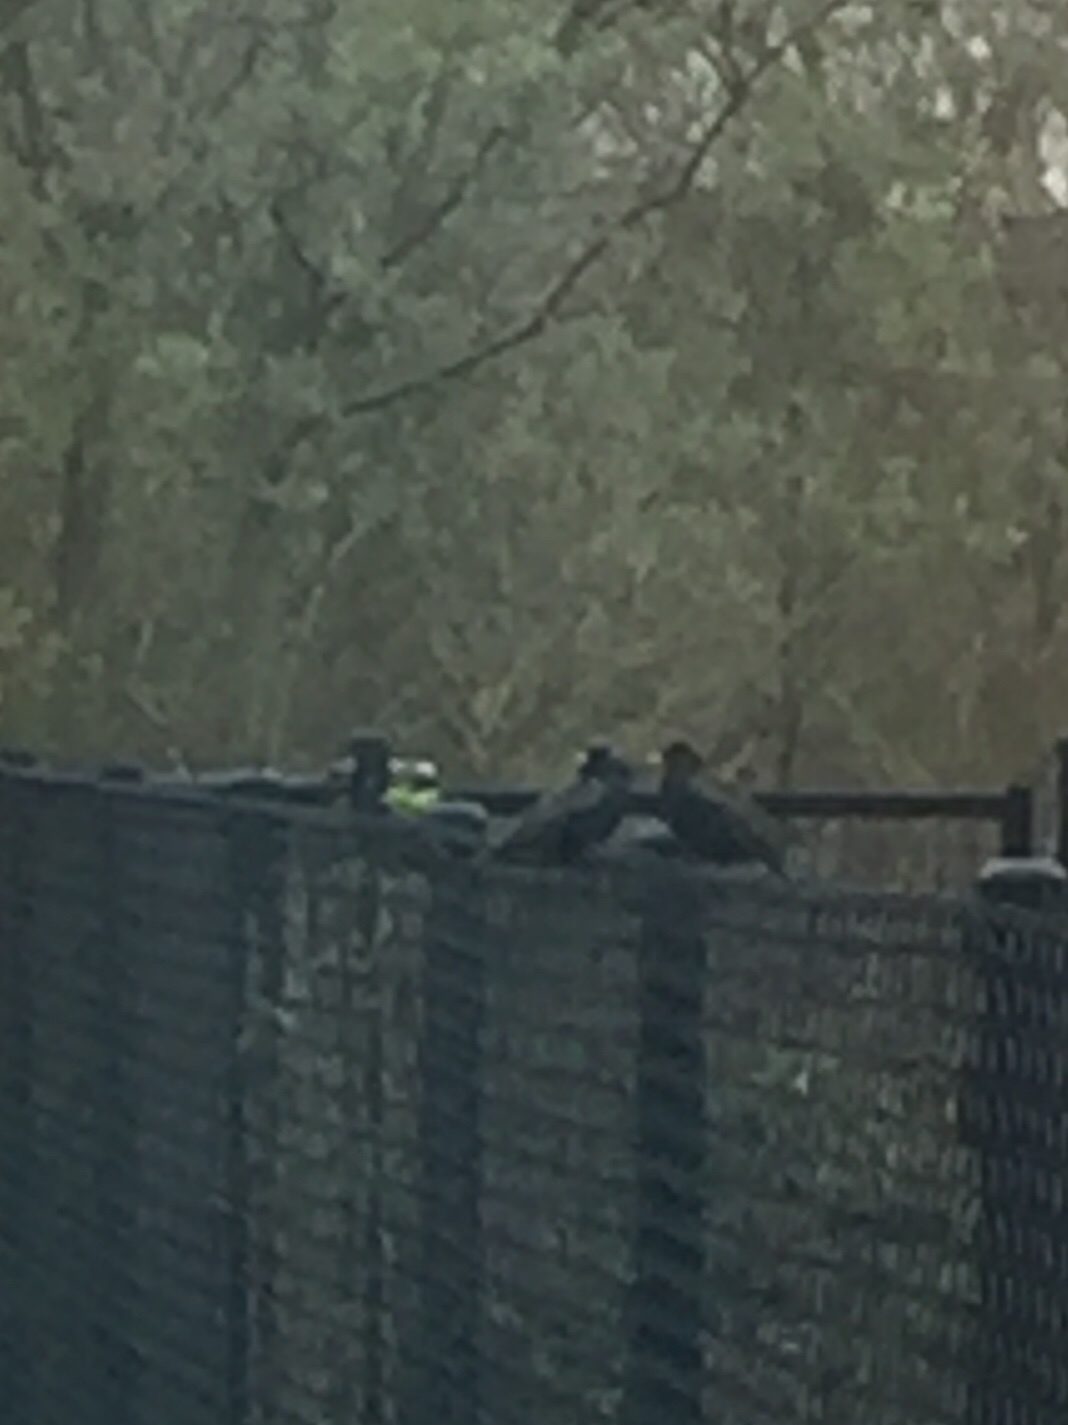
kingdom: Animalia
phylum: Chordata
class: Aves
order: Passeriformes
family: Sturnidae
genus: Sturnus
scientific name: Sturnus vulgaris
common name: Common starling
